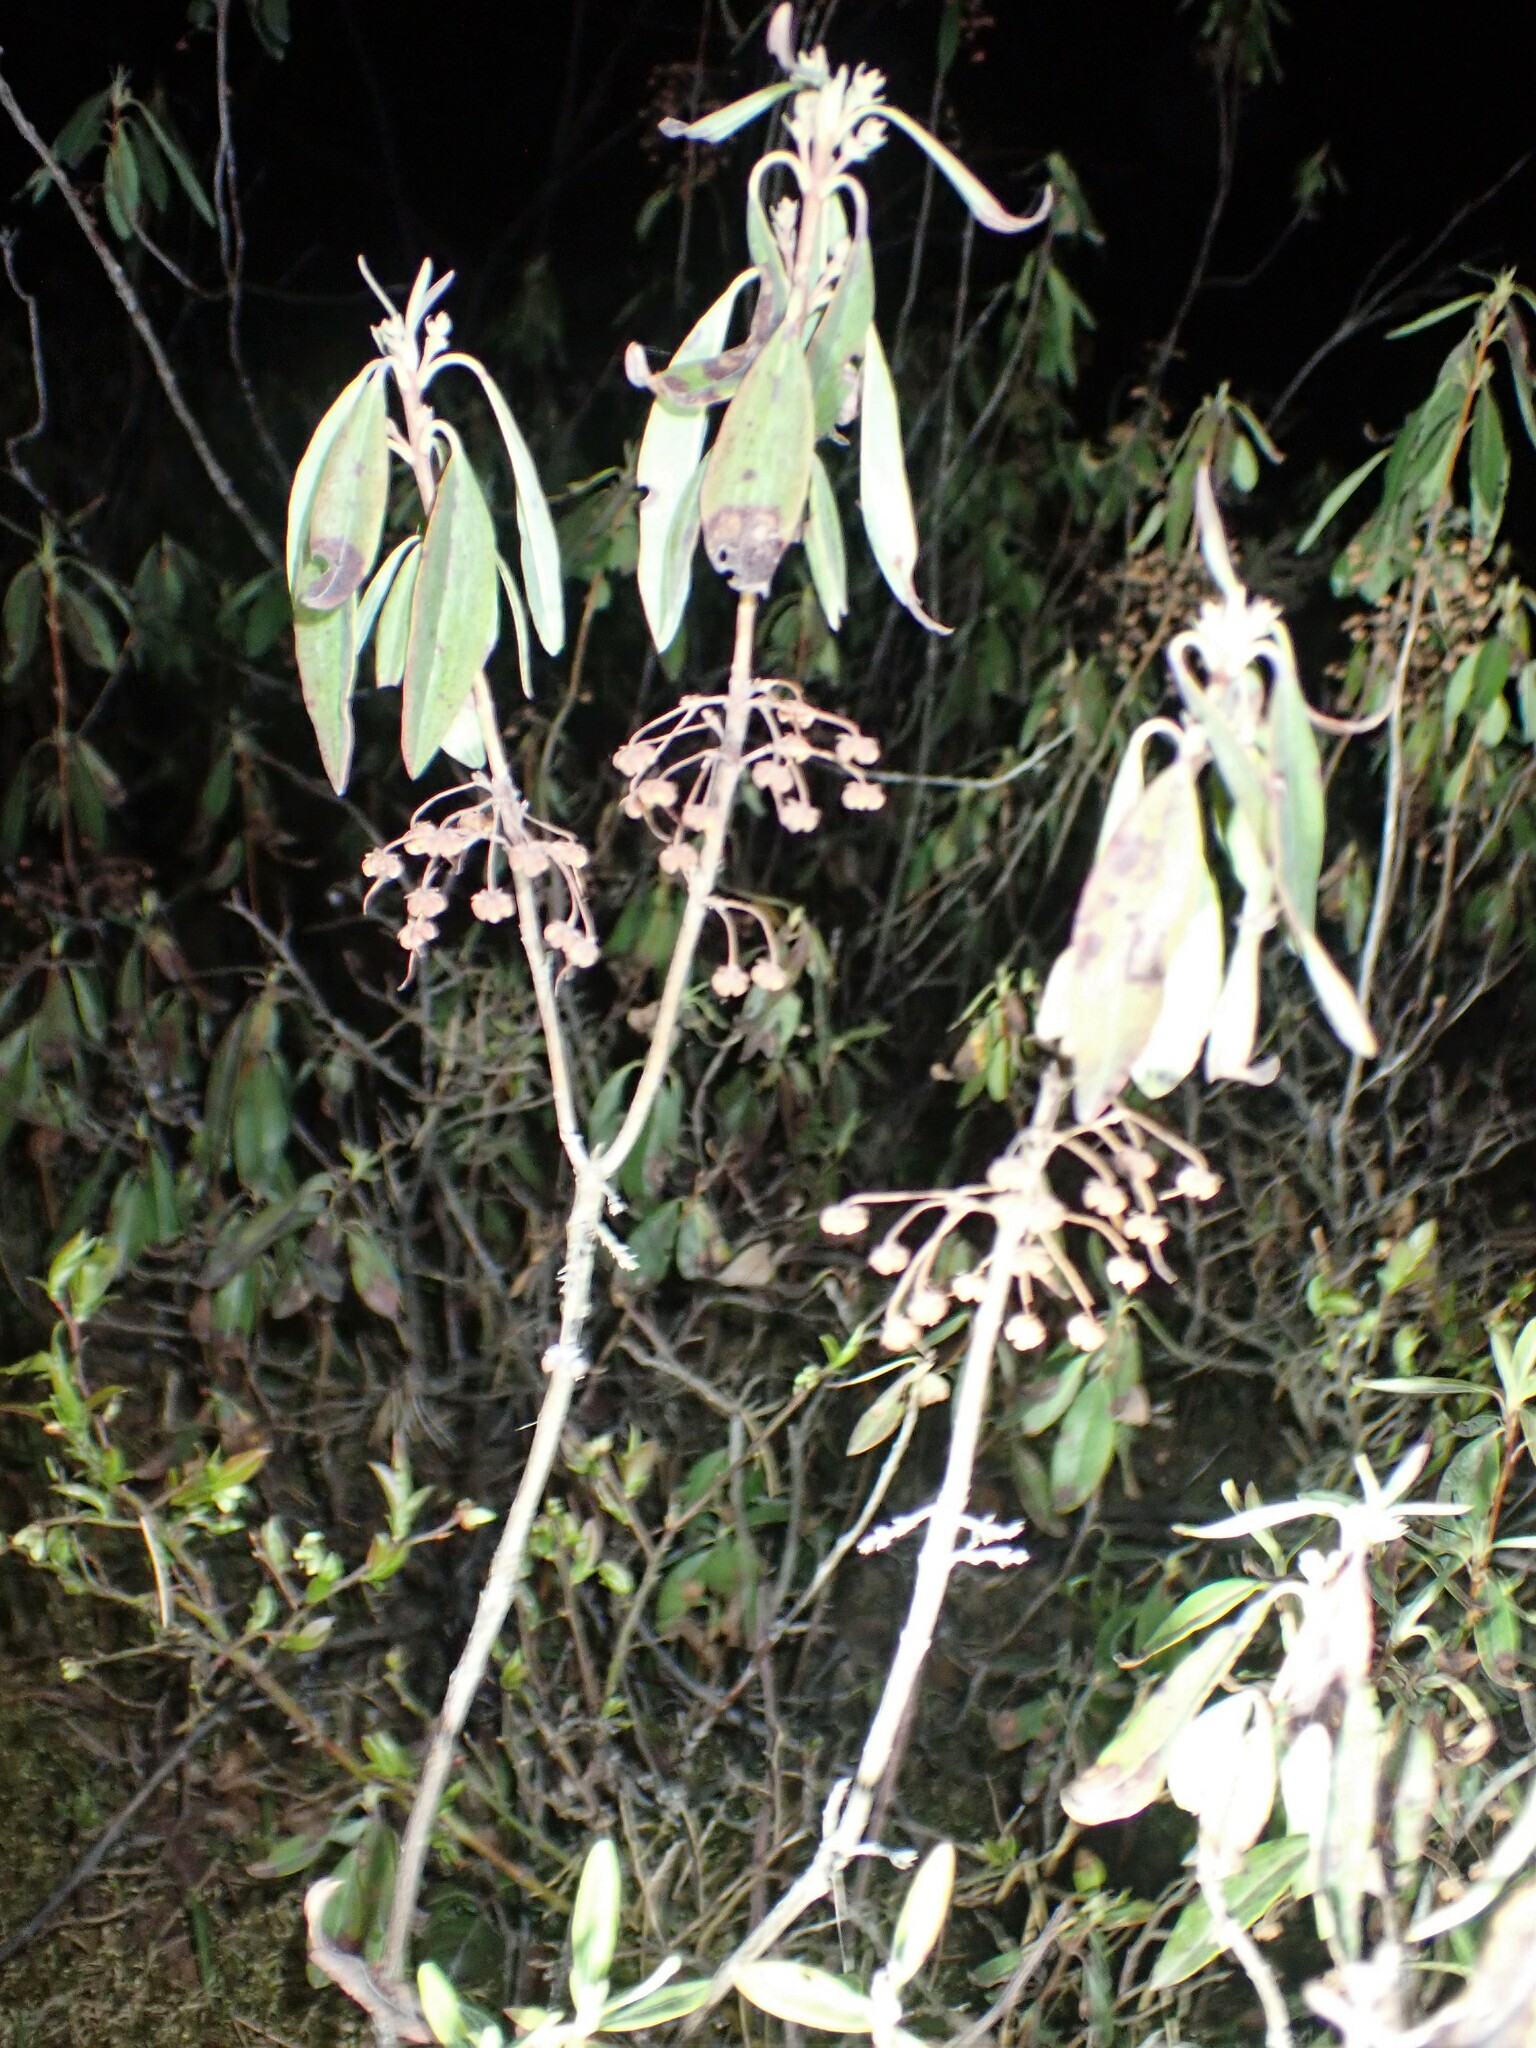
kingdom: Plantae
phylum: Tracheophyta
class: Magnoliopsida
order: Ericales
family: Ericaceae
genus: Kalmia
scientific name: Kalmia angustifolia
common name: Sheep-laurel
